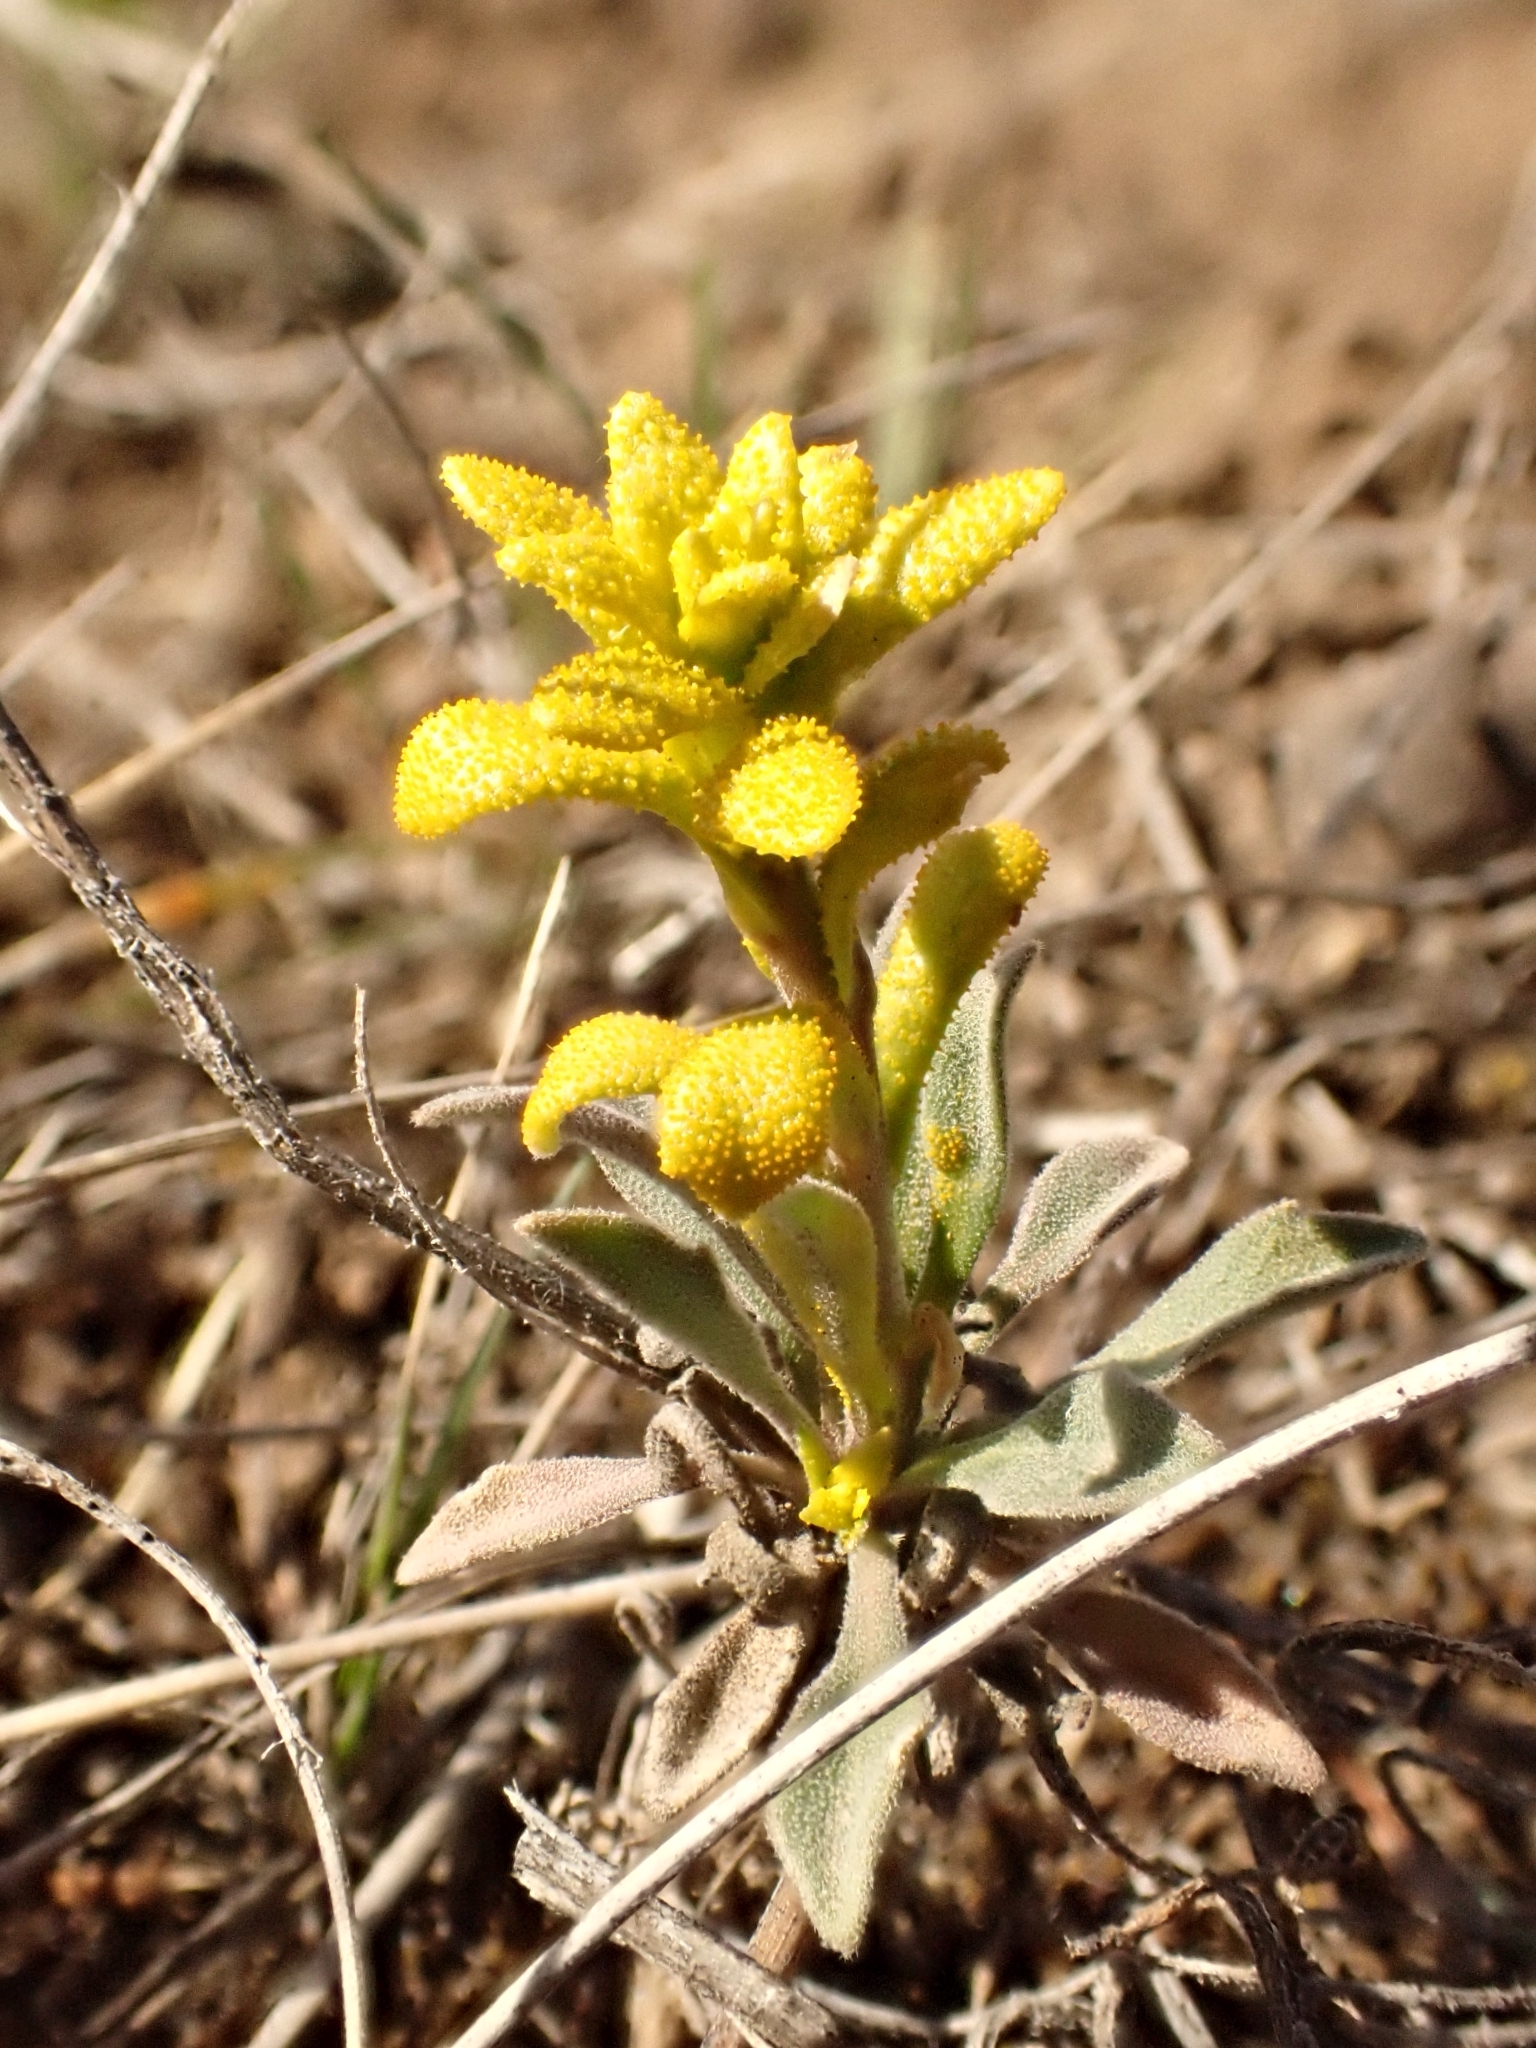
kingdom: Fungi
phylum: Basidiomycota
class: Pucciniomycetes
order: Pucciniales
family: Pucciniaceae
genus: Puccinia
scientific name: Puccinia monoica
